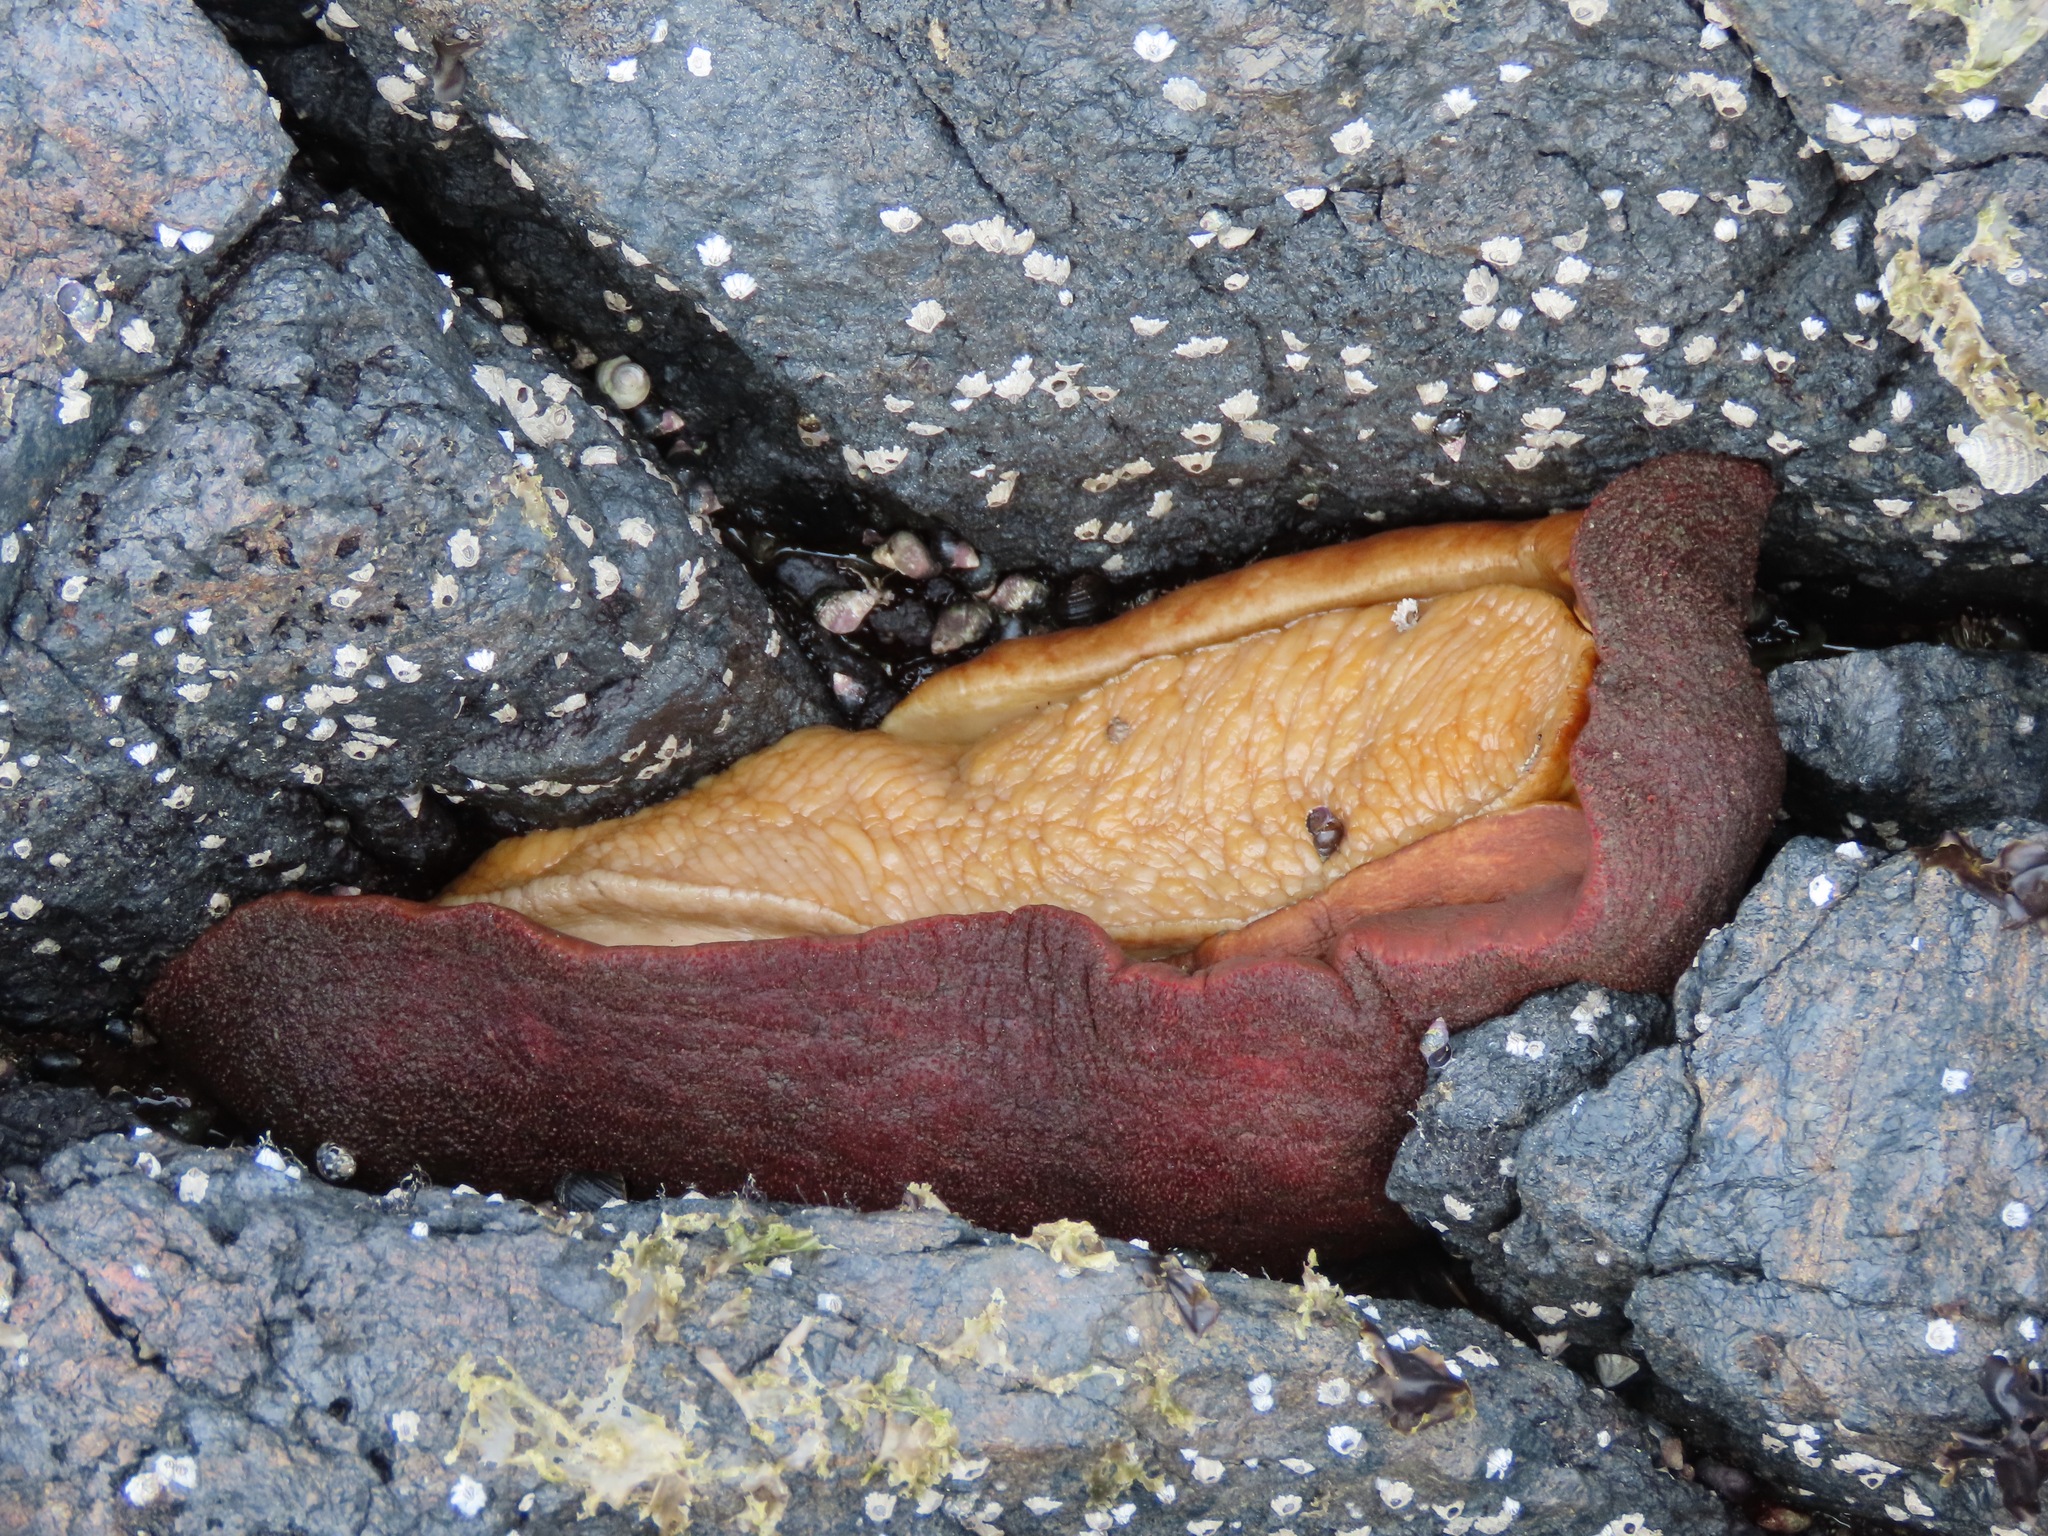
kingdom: Animalia
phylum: Mollusca
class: Polyplacophora
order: Chitonida
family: Acanthochitonidae
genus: Cryptochiton
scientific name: Cryptochiton stelleri
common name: Giant pacific chiton
